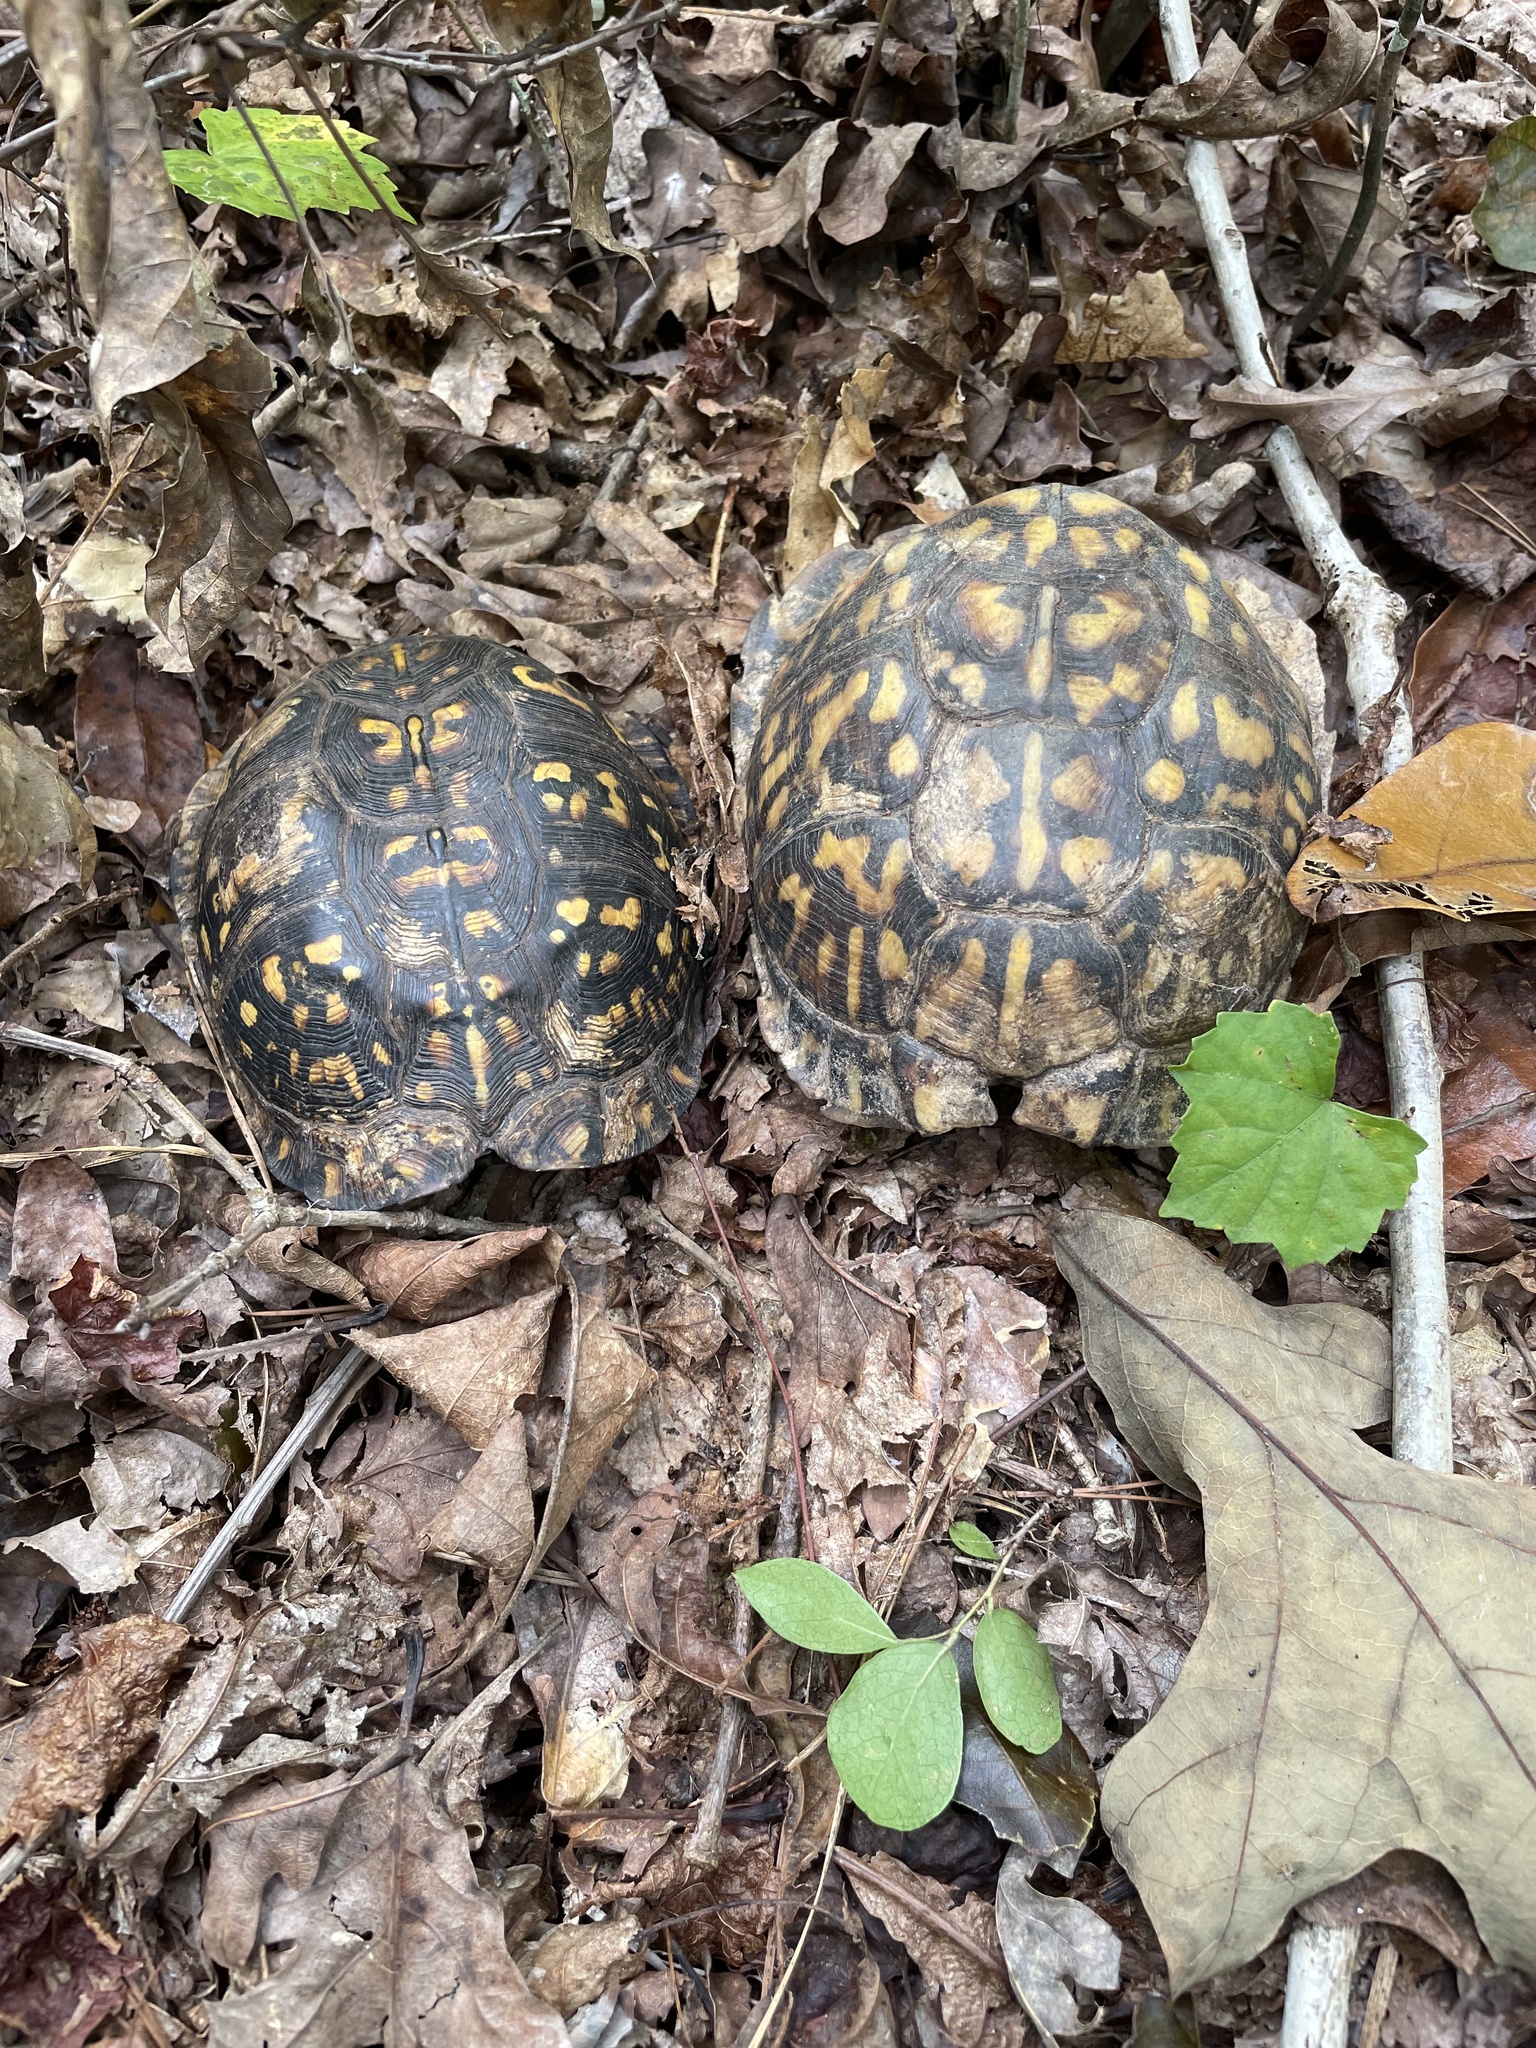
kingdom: Animalia
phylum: Chordata
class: Testudines
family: Emydidae
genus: Terrapene
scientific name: Terrapene carolina
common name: Common box turtle
